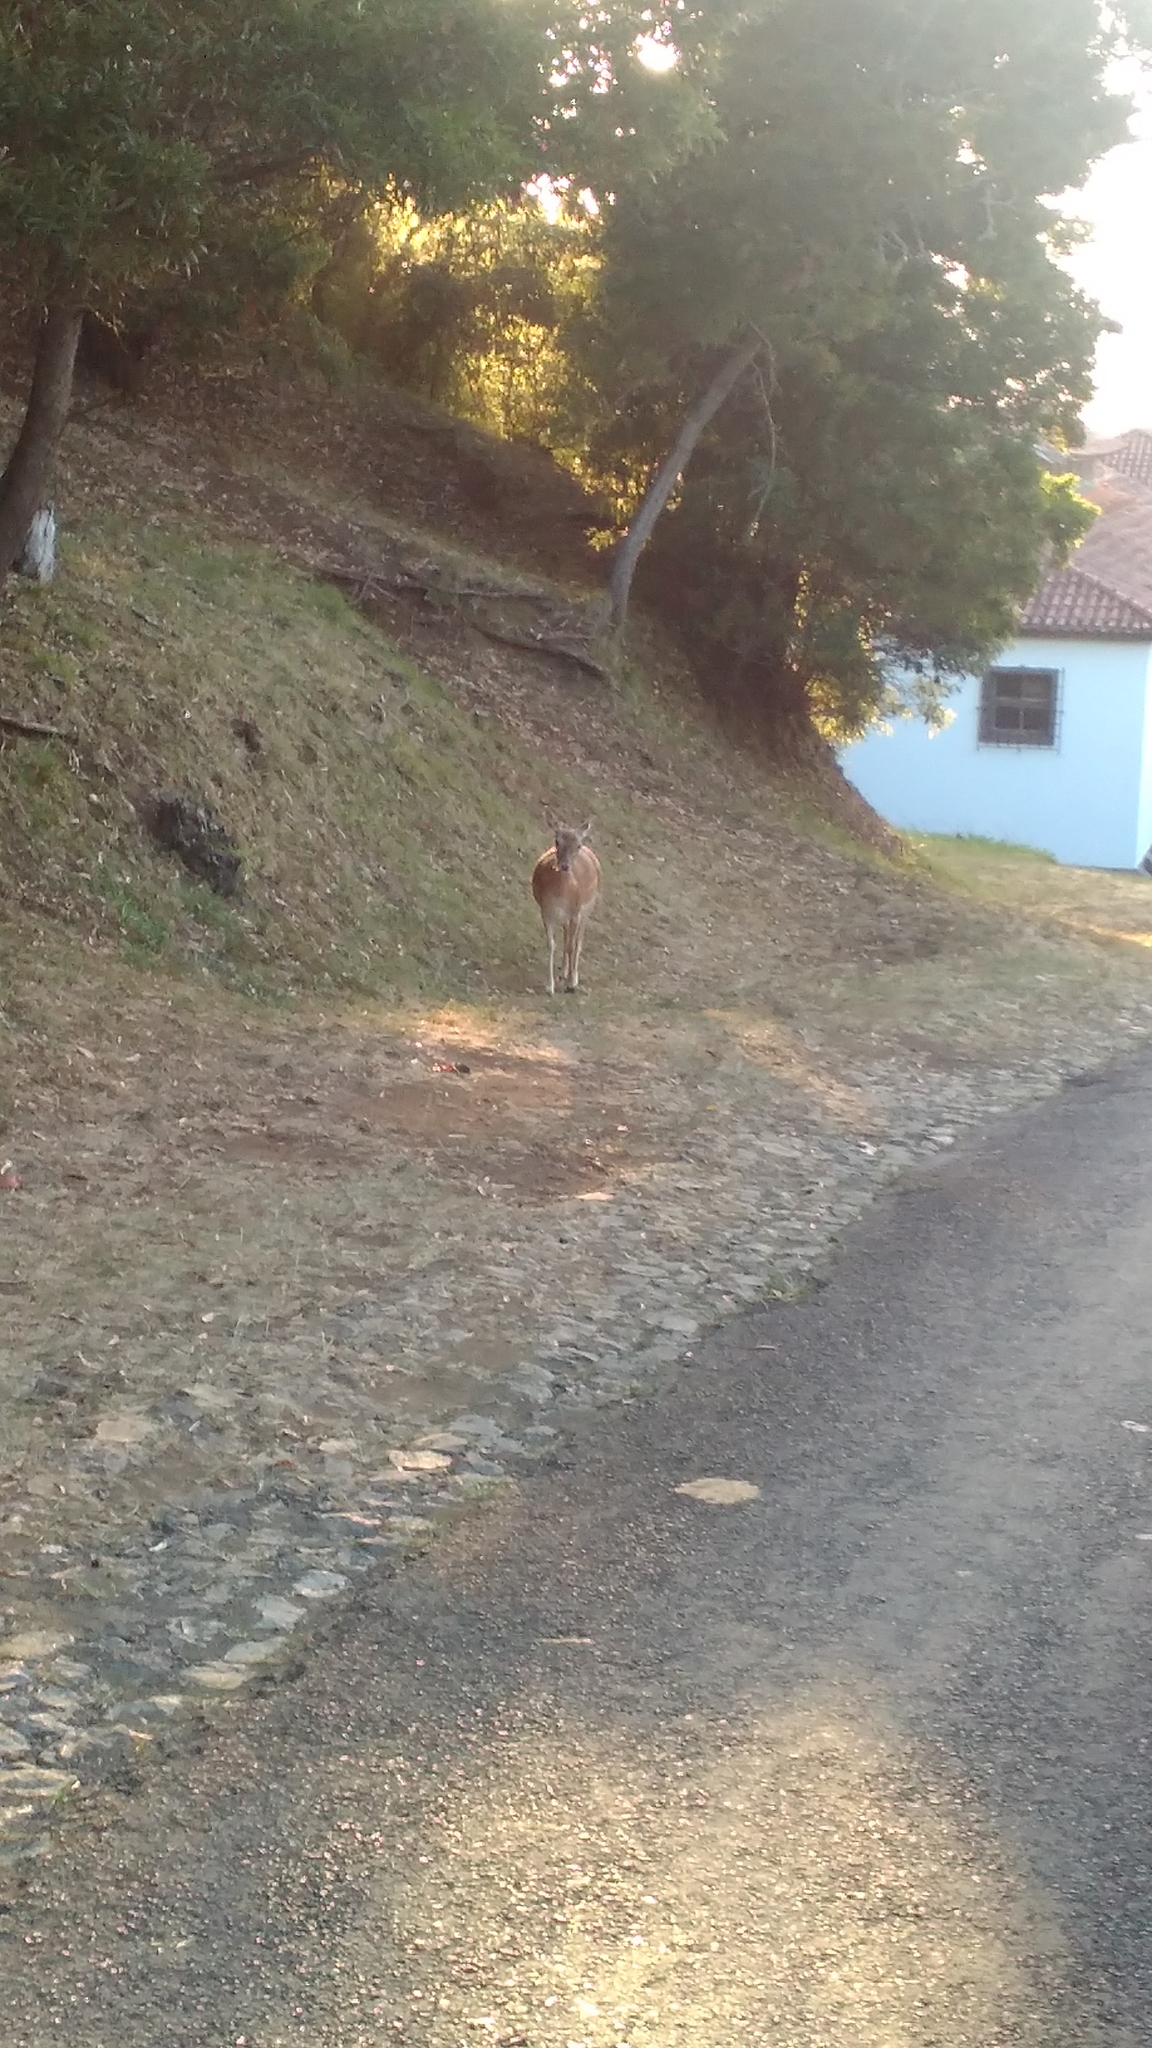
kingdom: Animalia
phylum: Chordata
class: Mammalia
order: Artiodactyla
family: Cervidae
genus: Dama
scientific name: Dama dama
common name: Fallow deer
